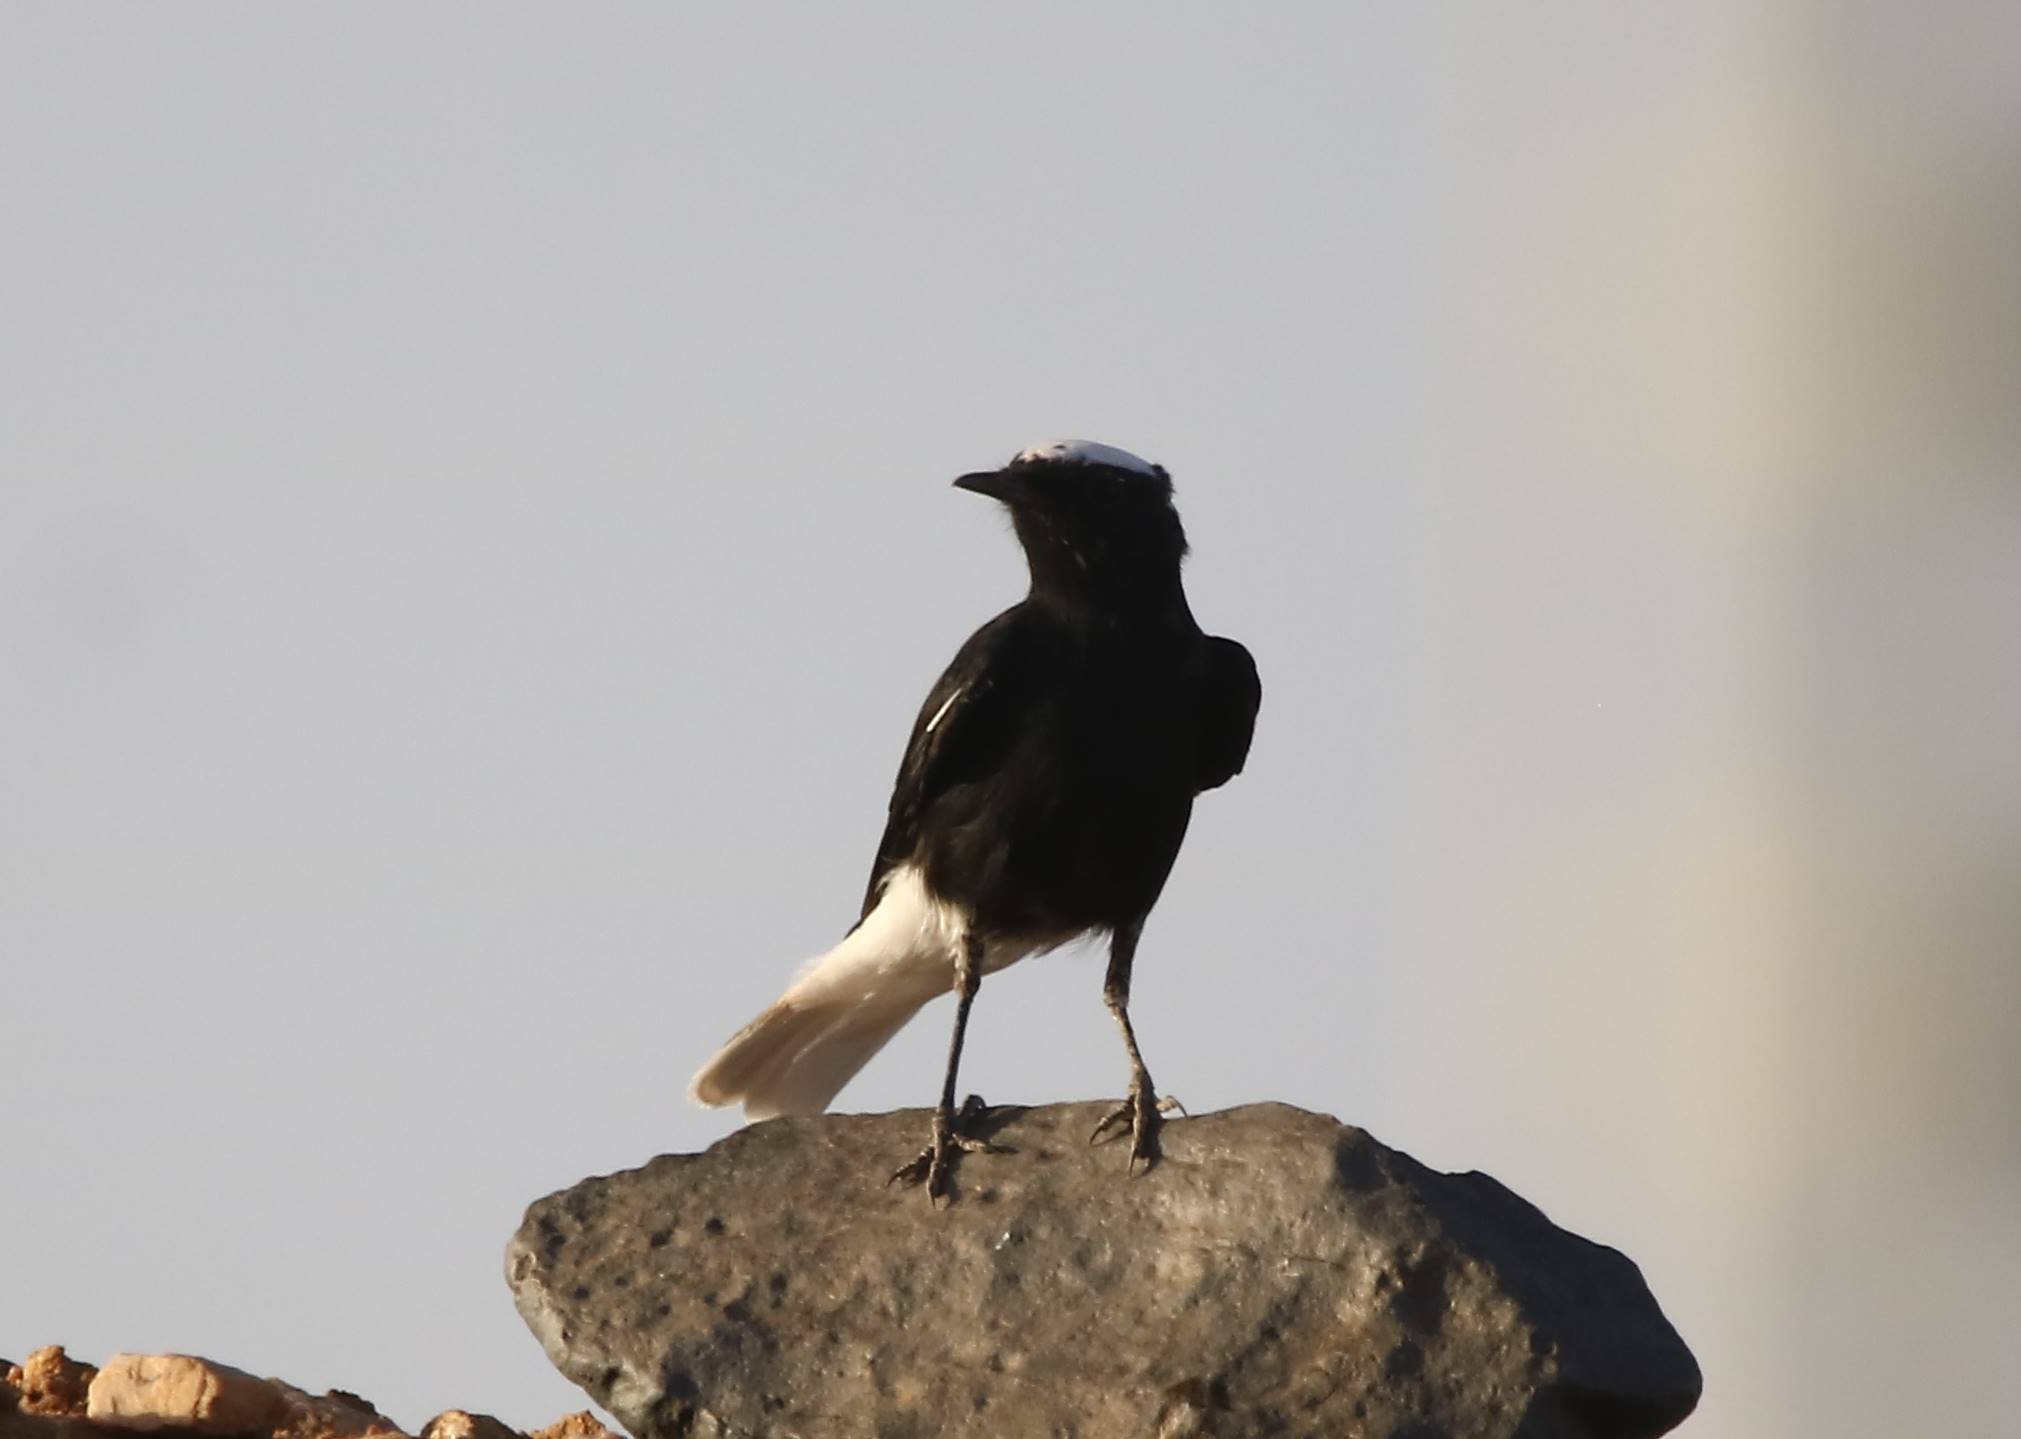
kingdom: Animalia
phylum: Chordata
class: Aves
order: Passeriformes
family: Muscicapidae
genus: Oenanthe
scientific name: Oenanthe leucopyga
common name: White-crowned wheatear
